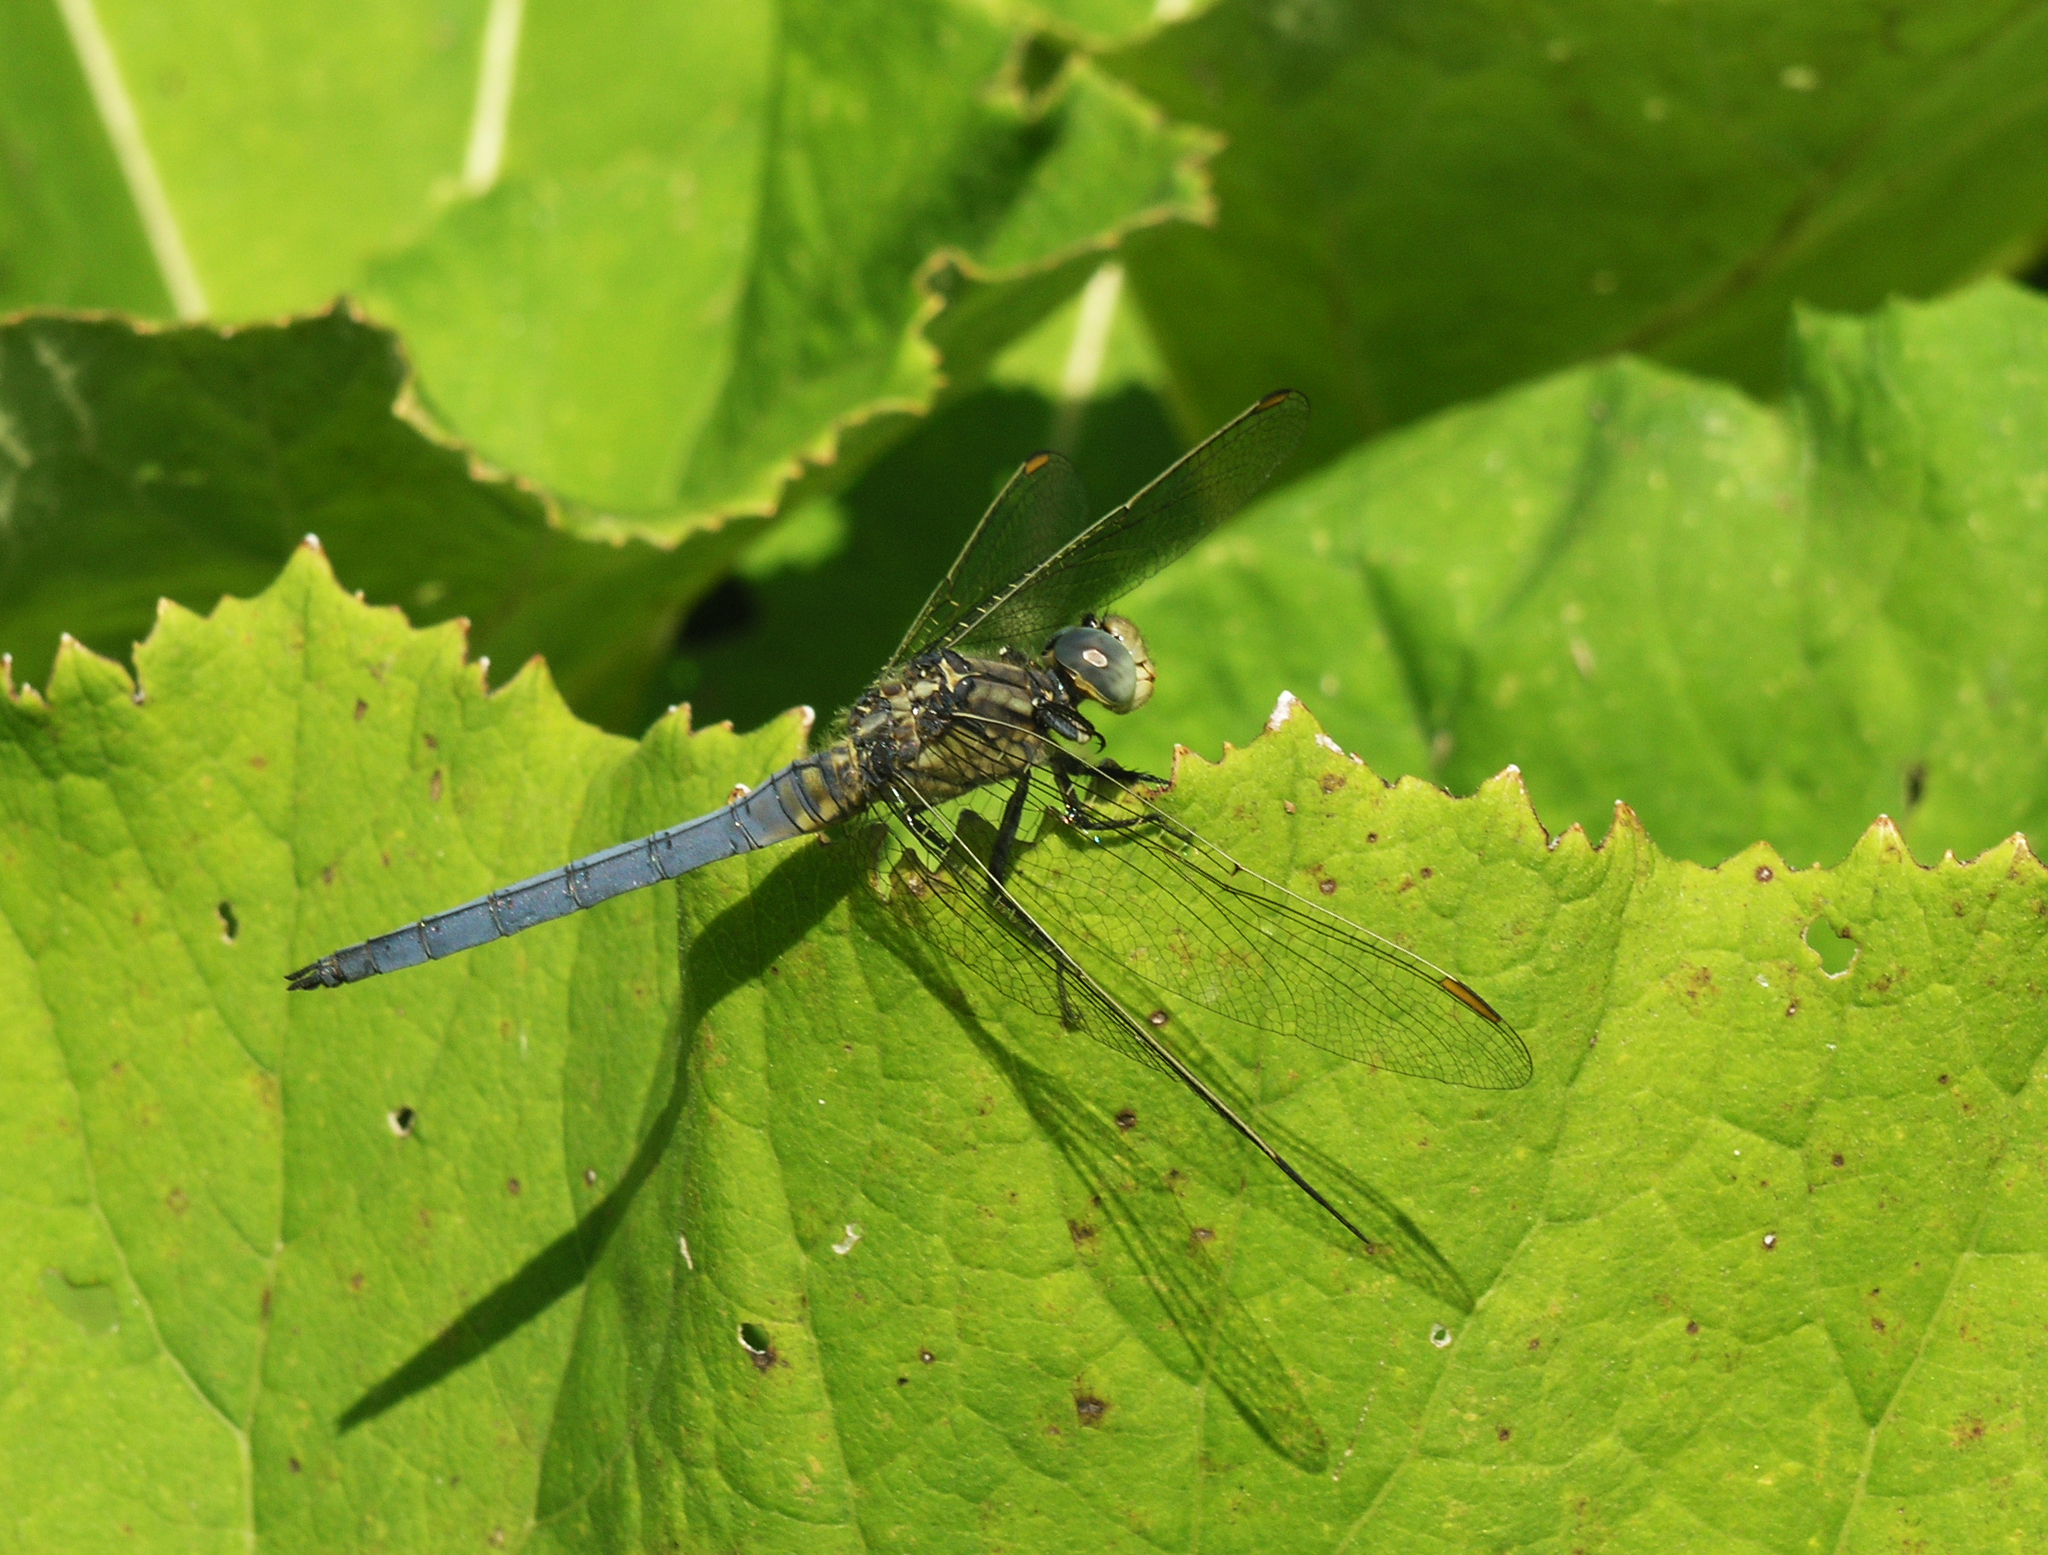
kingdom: Animalia
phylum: Arthropoda
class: Insecta
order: Odonata
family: Libellulidae
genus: Orthetrum
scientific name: Orthetrum coerulescens
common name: Keeled skimmer
